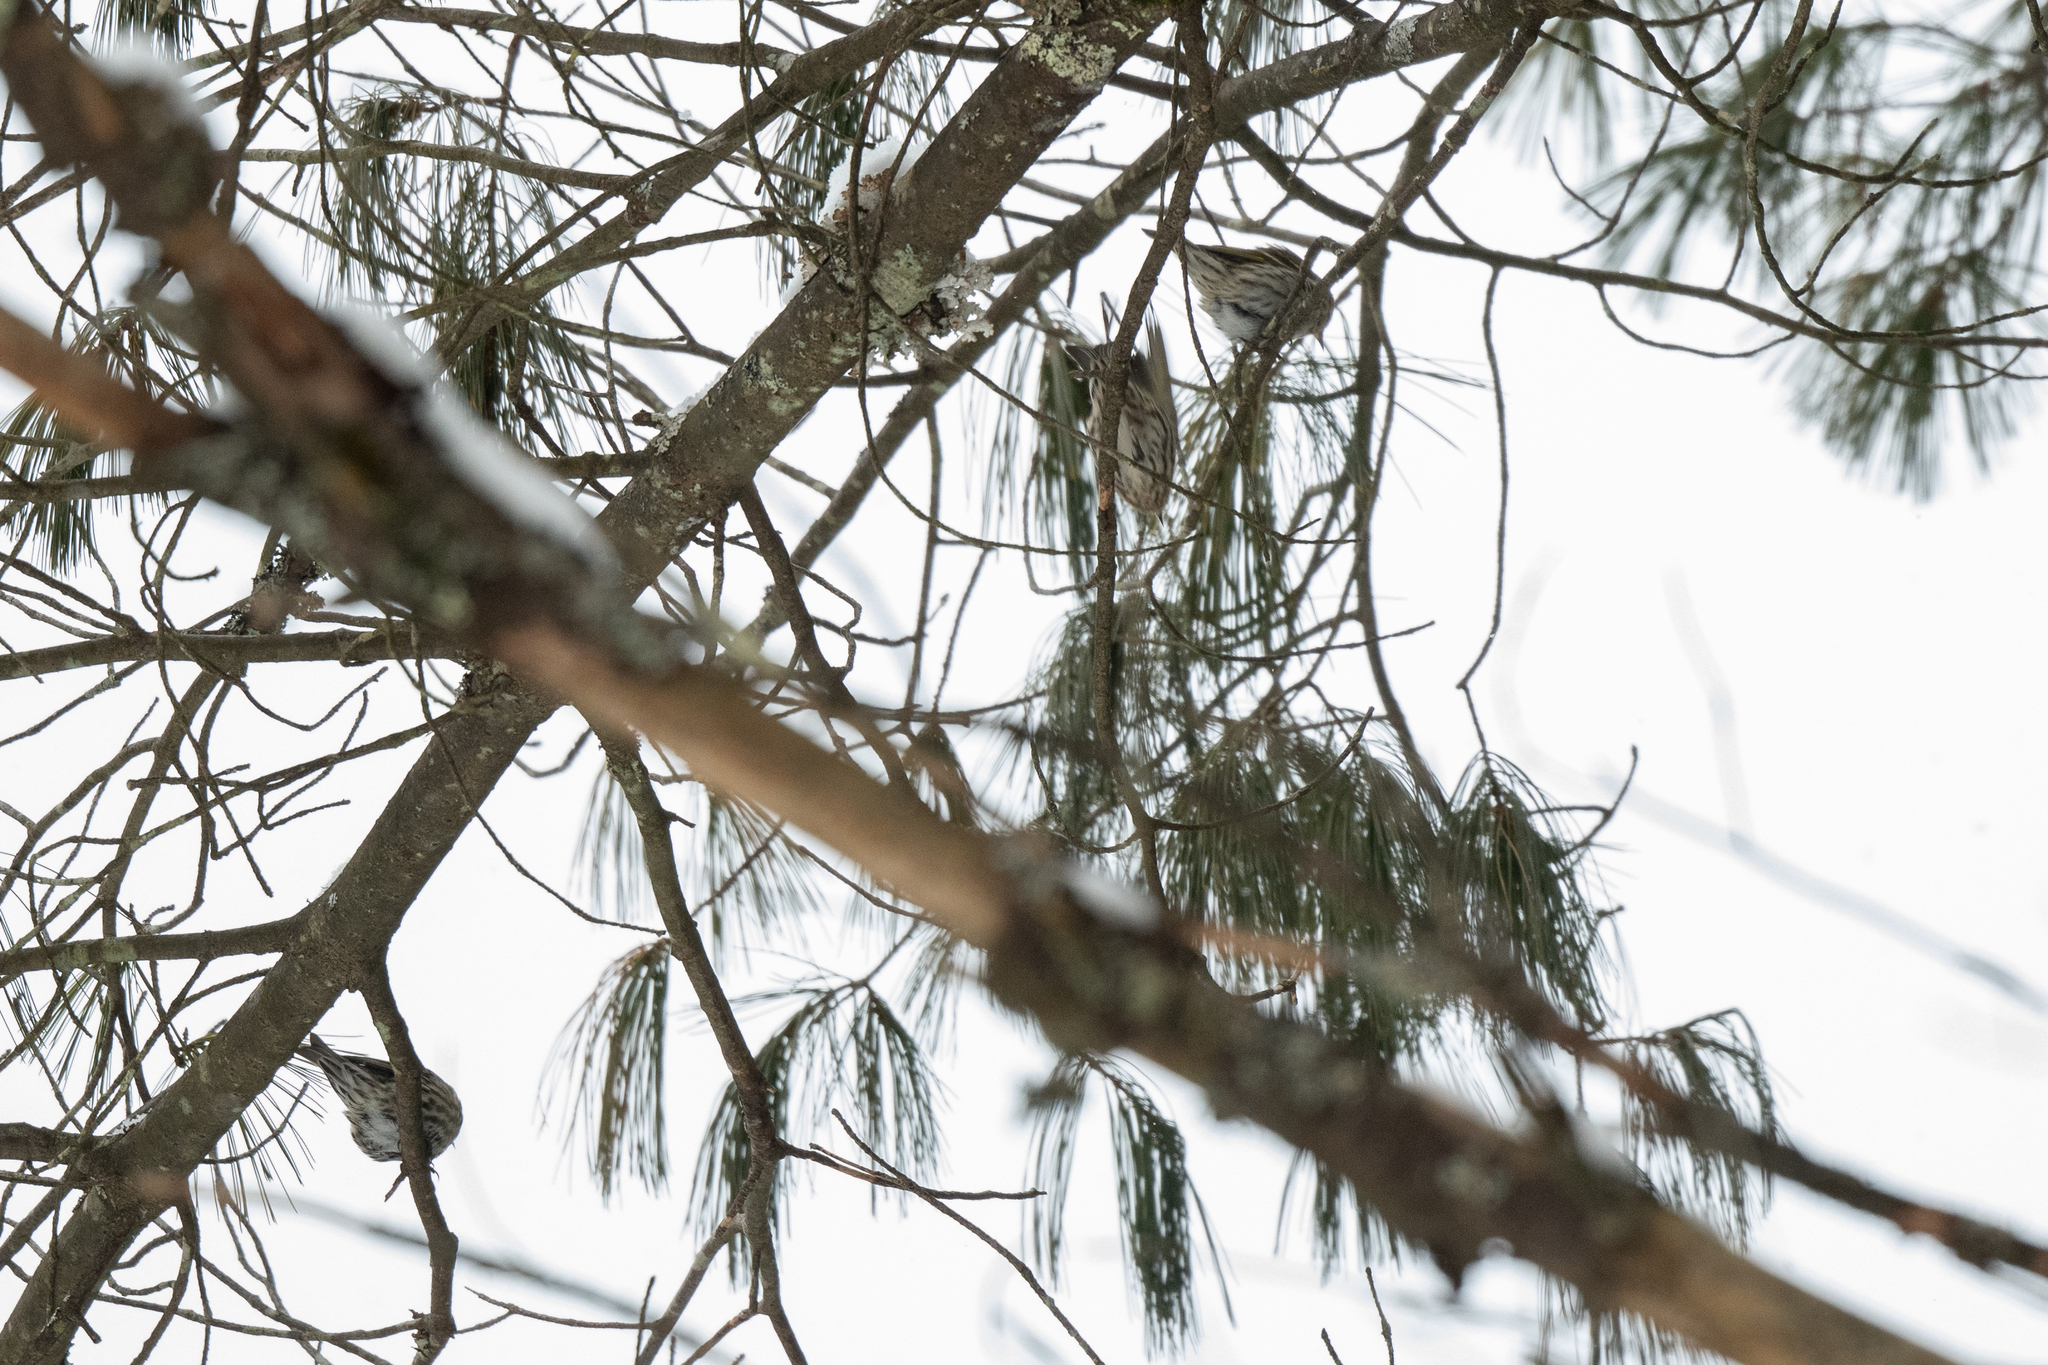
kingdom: Animalia
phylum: Chordata
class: Aves
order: Passeriformes
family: Fringillidae
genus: Spinus
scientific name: Spinus pinus
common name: Pine siskin
